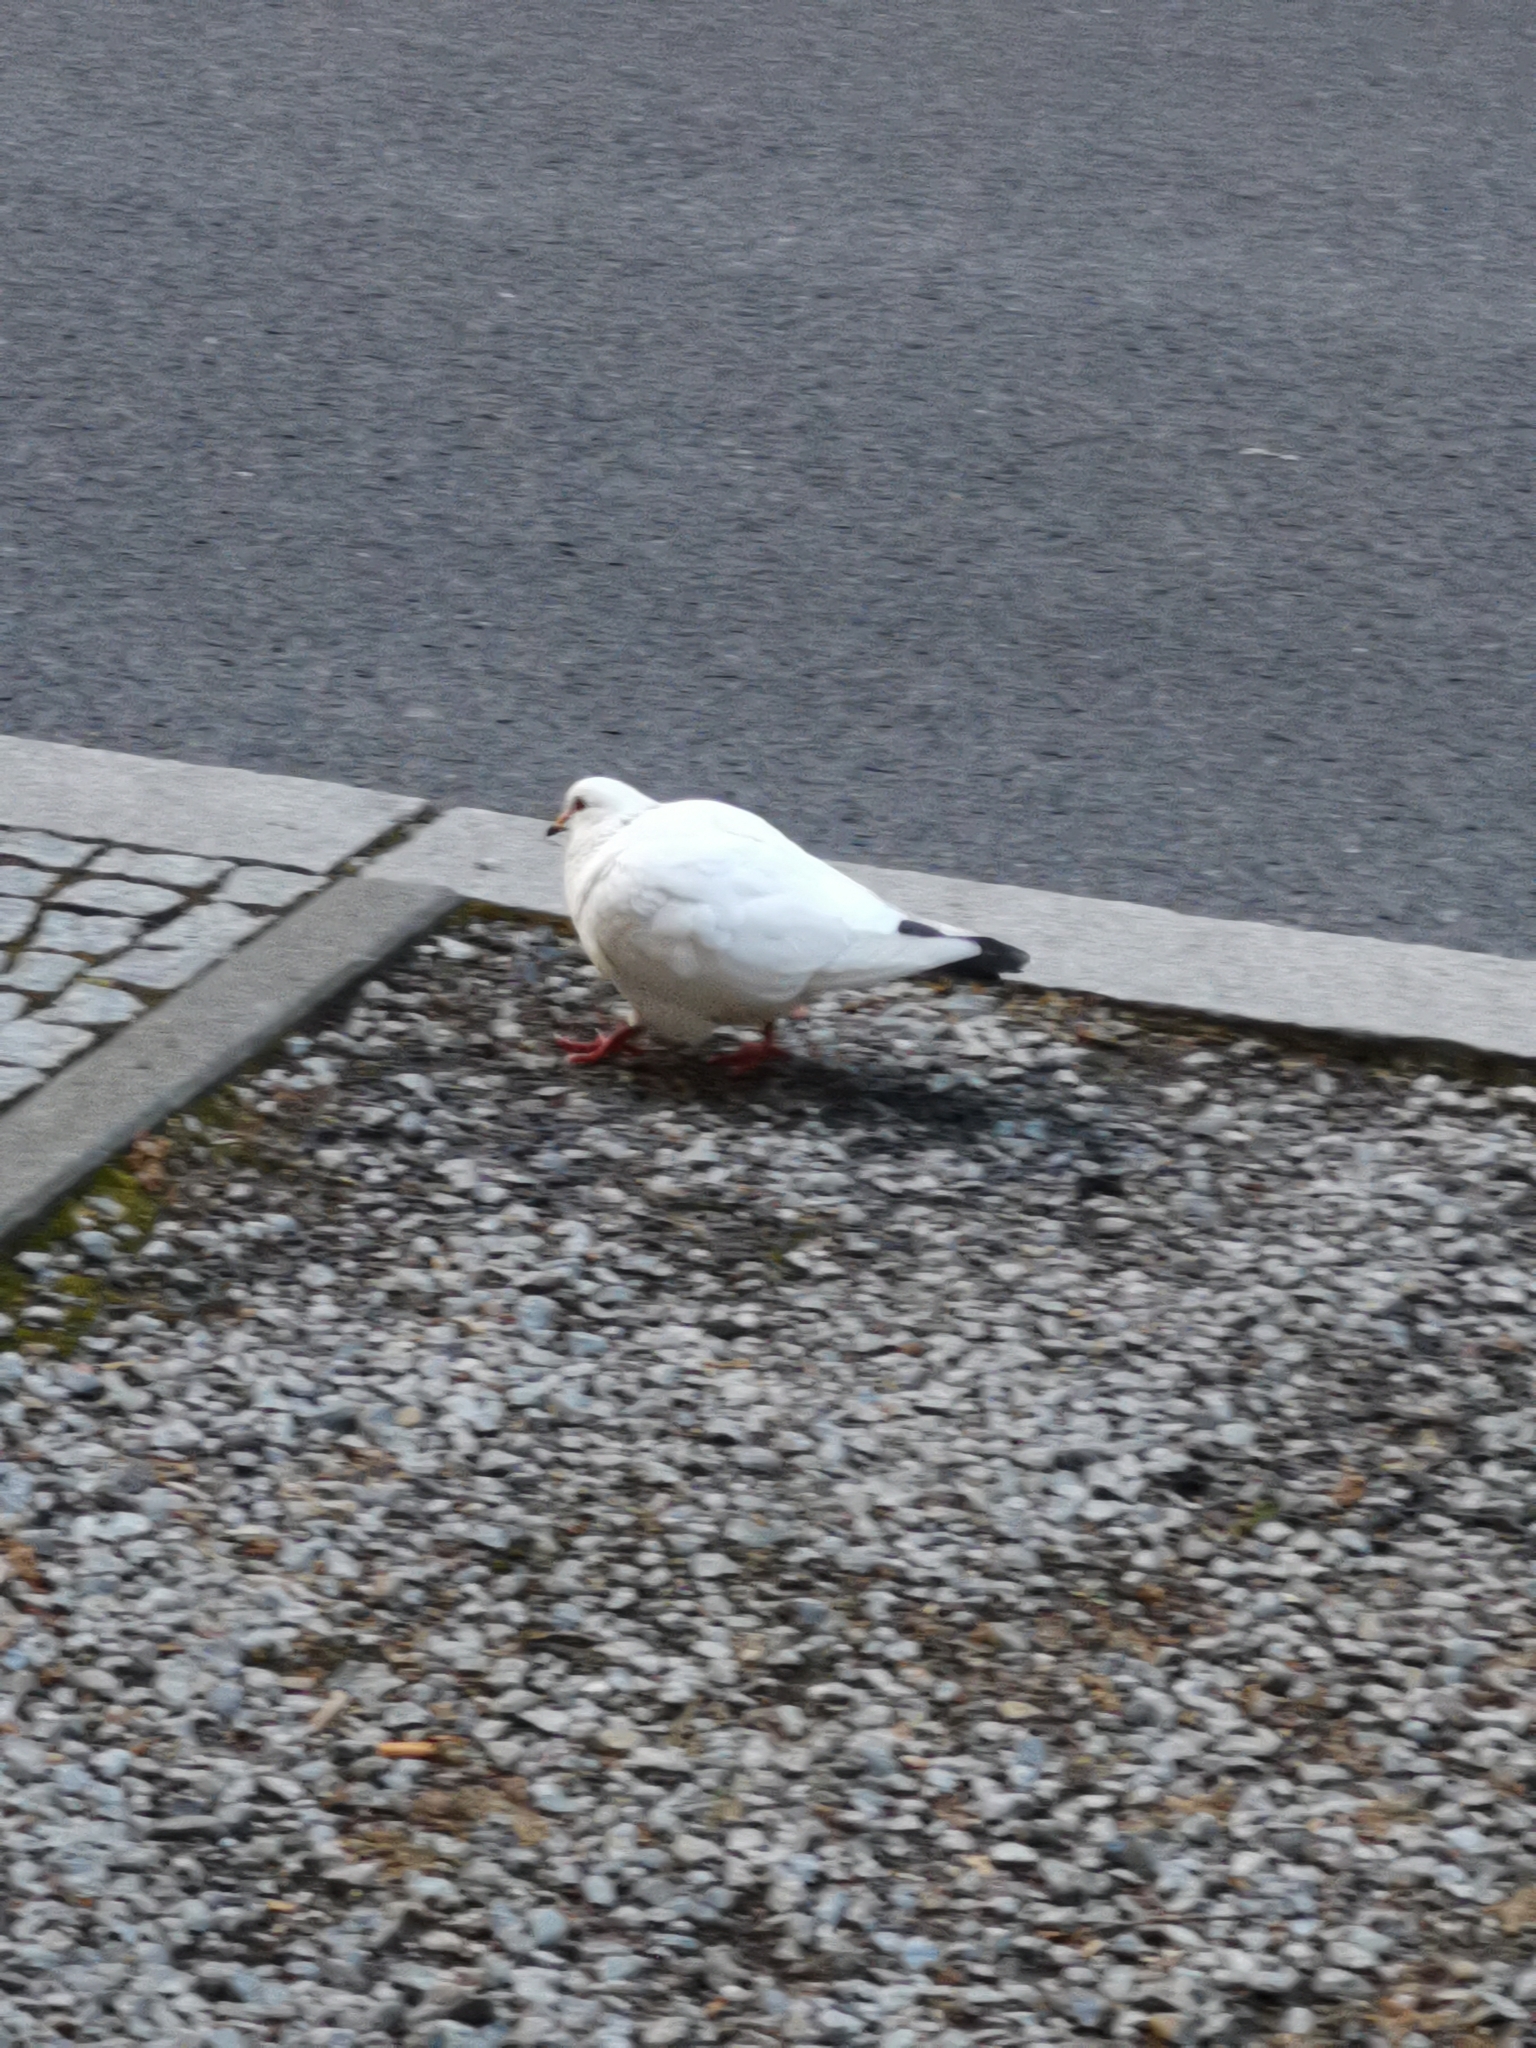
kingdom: Animalia
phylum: Chordata
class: Aves
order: Columbiformes
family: Columbidae
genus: Columba
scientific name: Columba livia
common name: Rock pigeon
